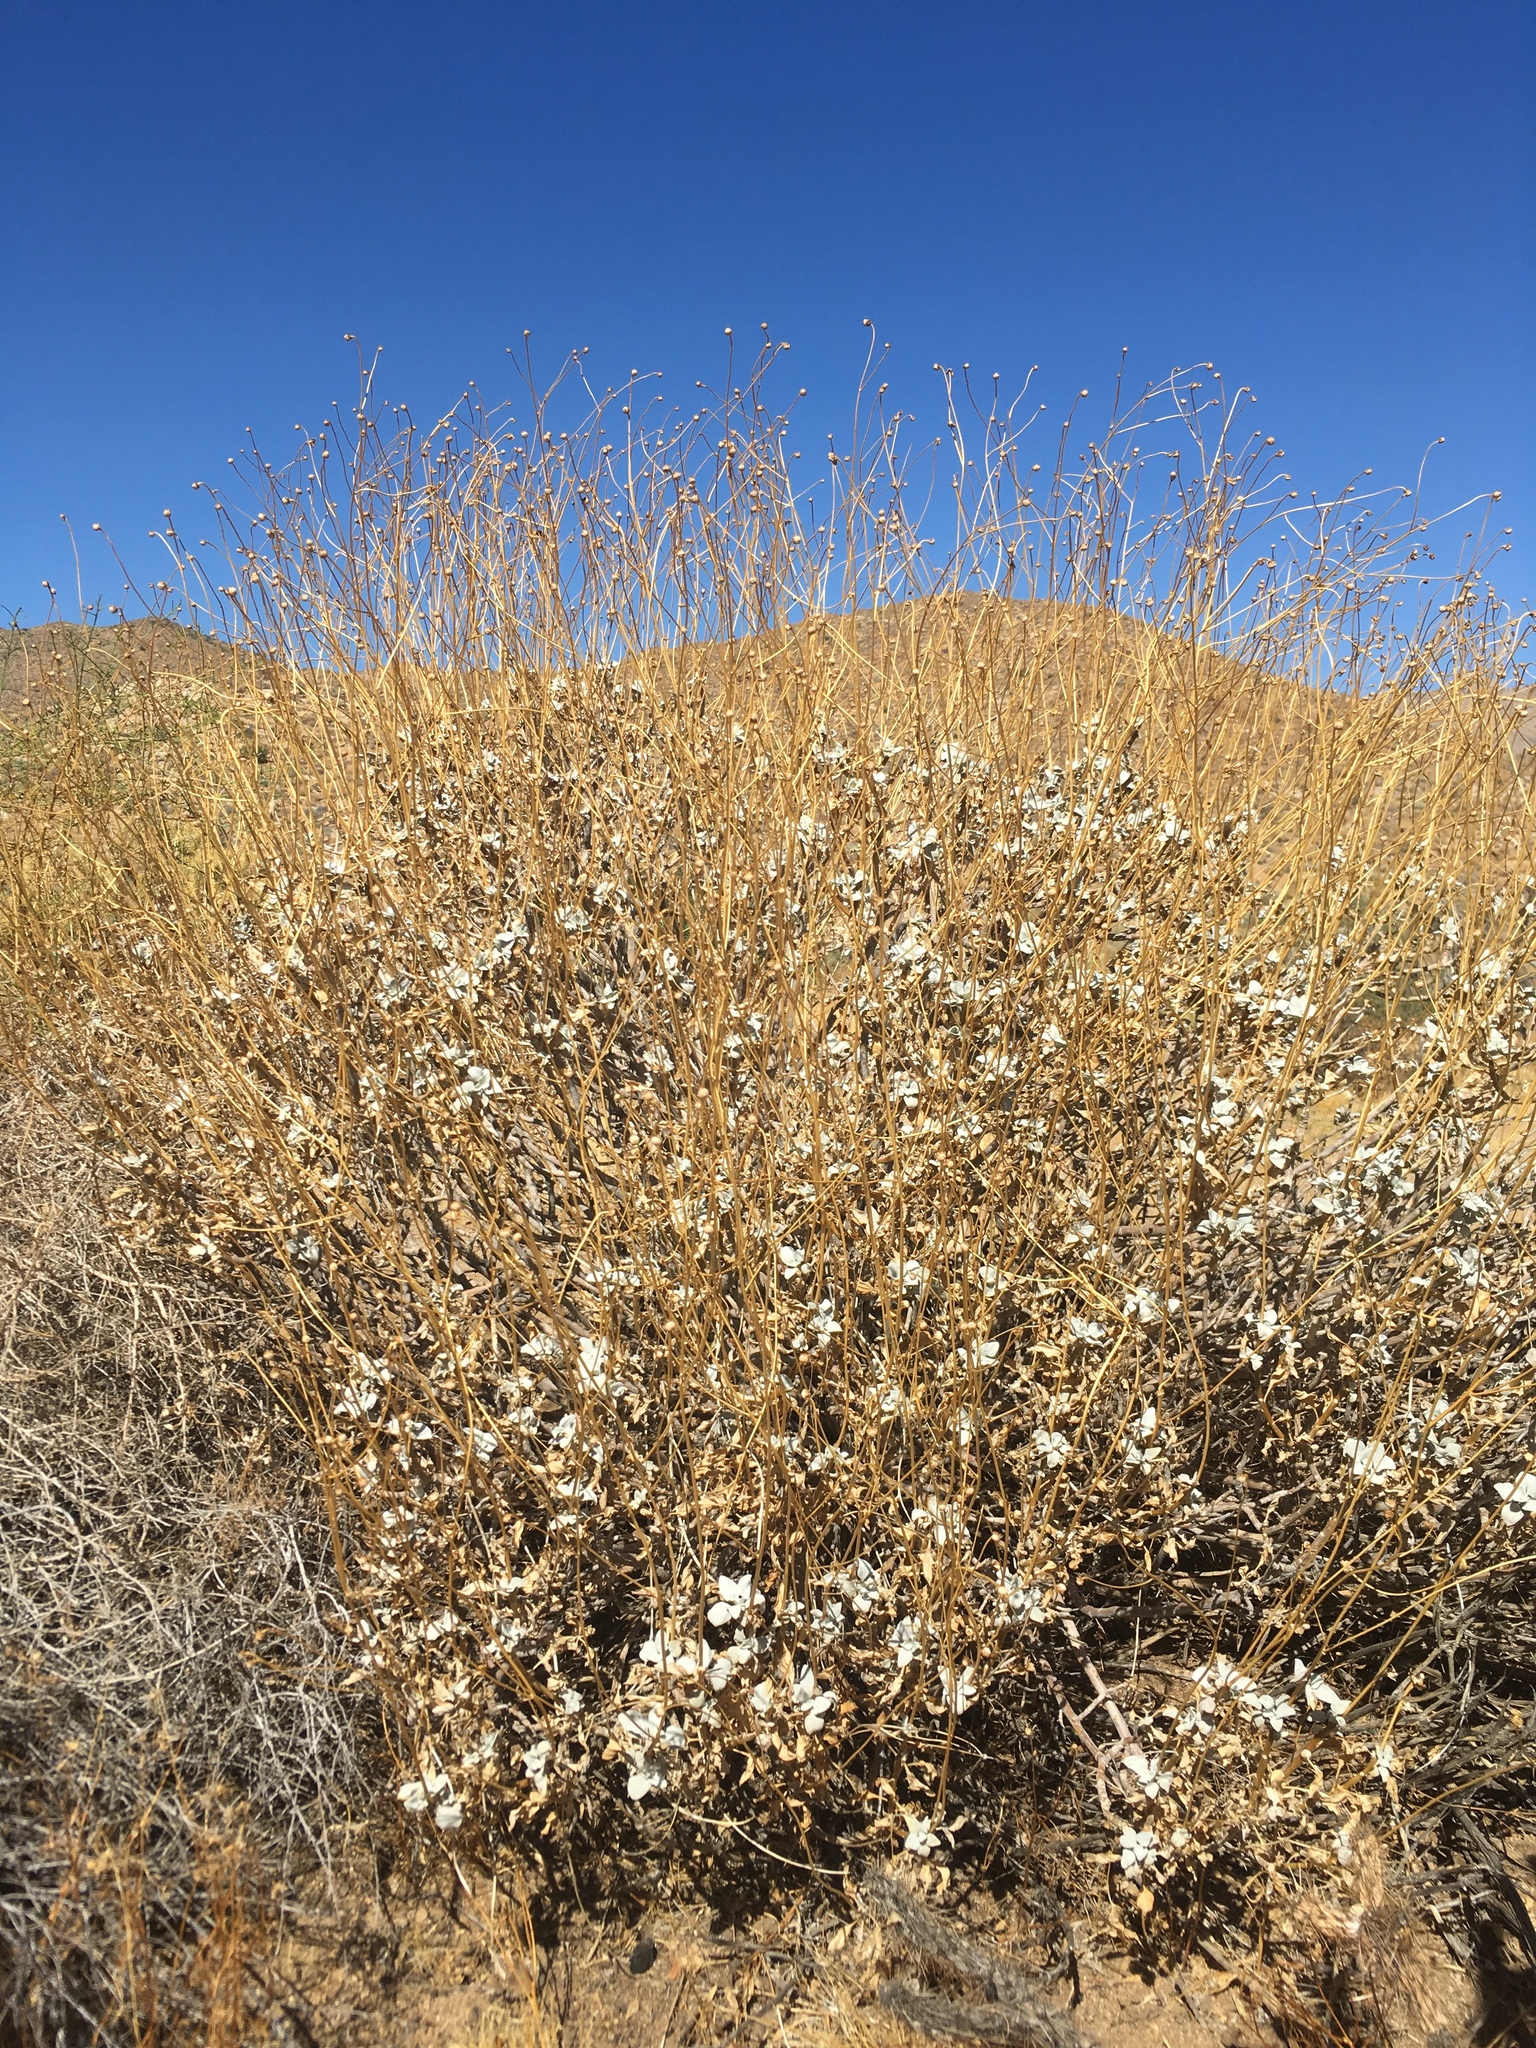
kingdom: Plantae
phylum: Tracheophyta
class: Magnoliopsida
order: Asterales
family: Asteraceae
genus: Encelia
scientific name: Encelia farinosa
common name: Brittlebush
